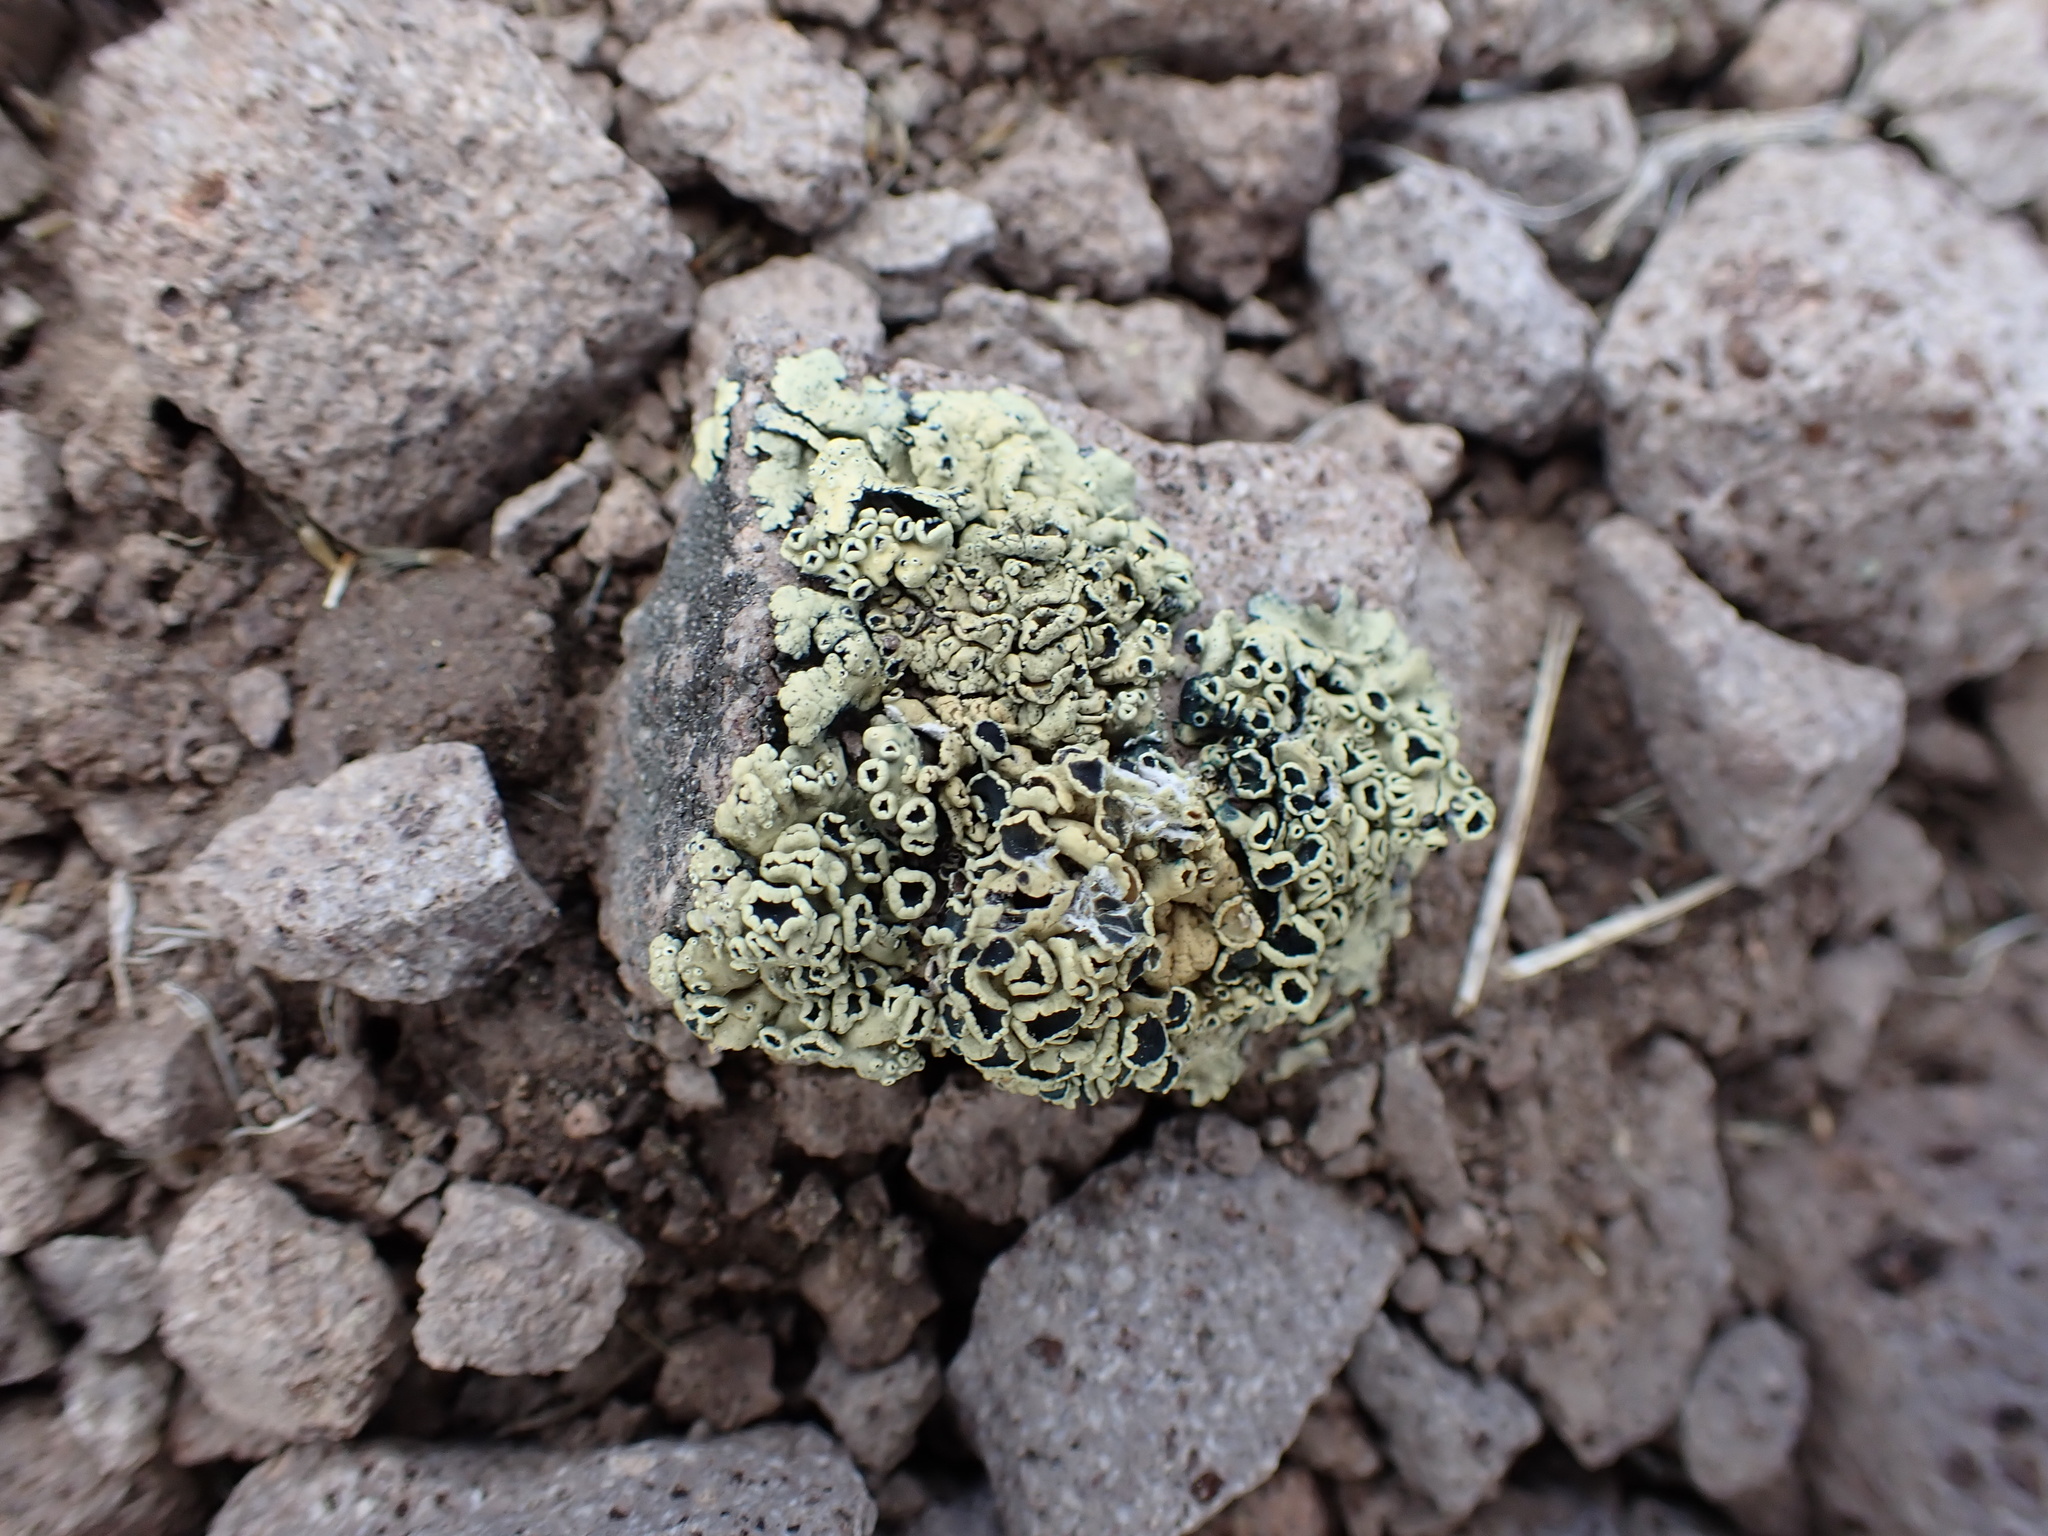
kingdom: Fungi
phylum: Ascomycota
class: Lecanoromycetes
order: Lecanorales
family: Lecanoraceae
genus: Rhizoplaca
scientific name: Rhizoplaca melanophthalma
